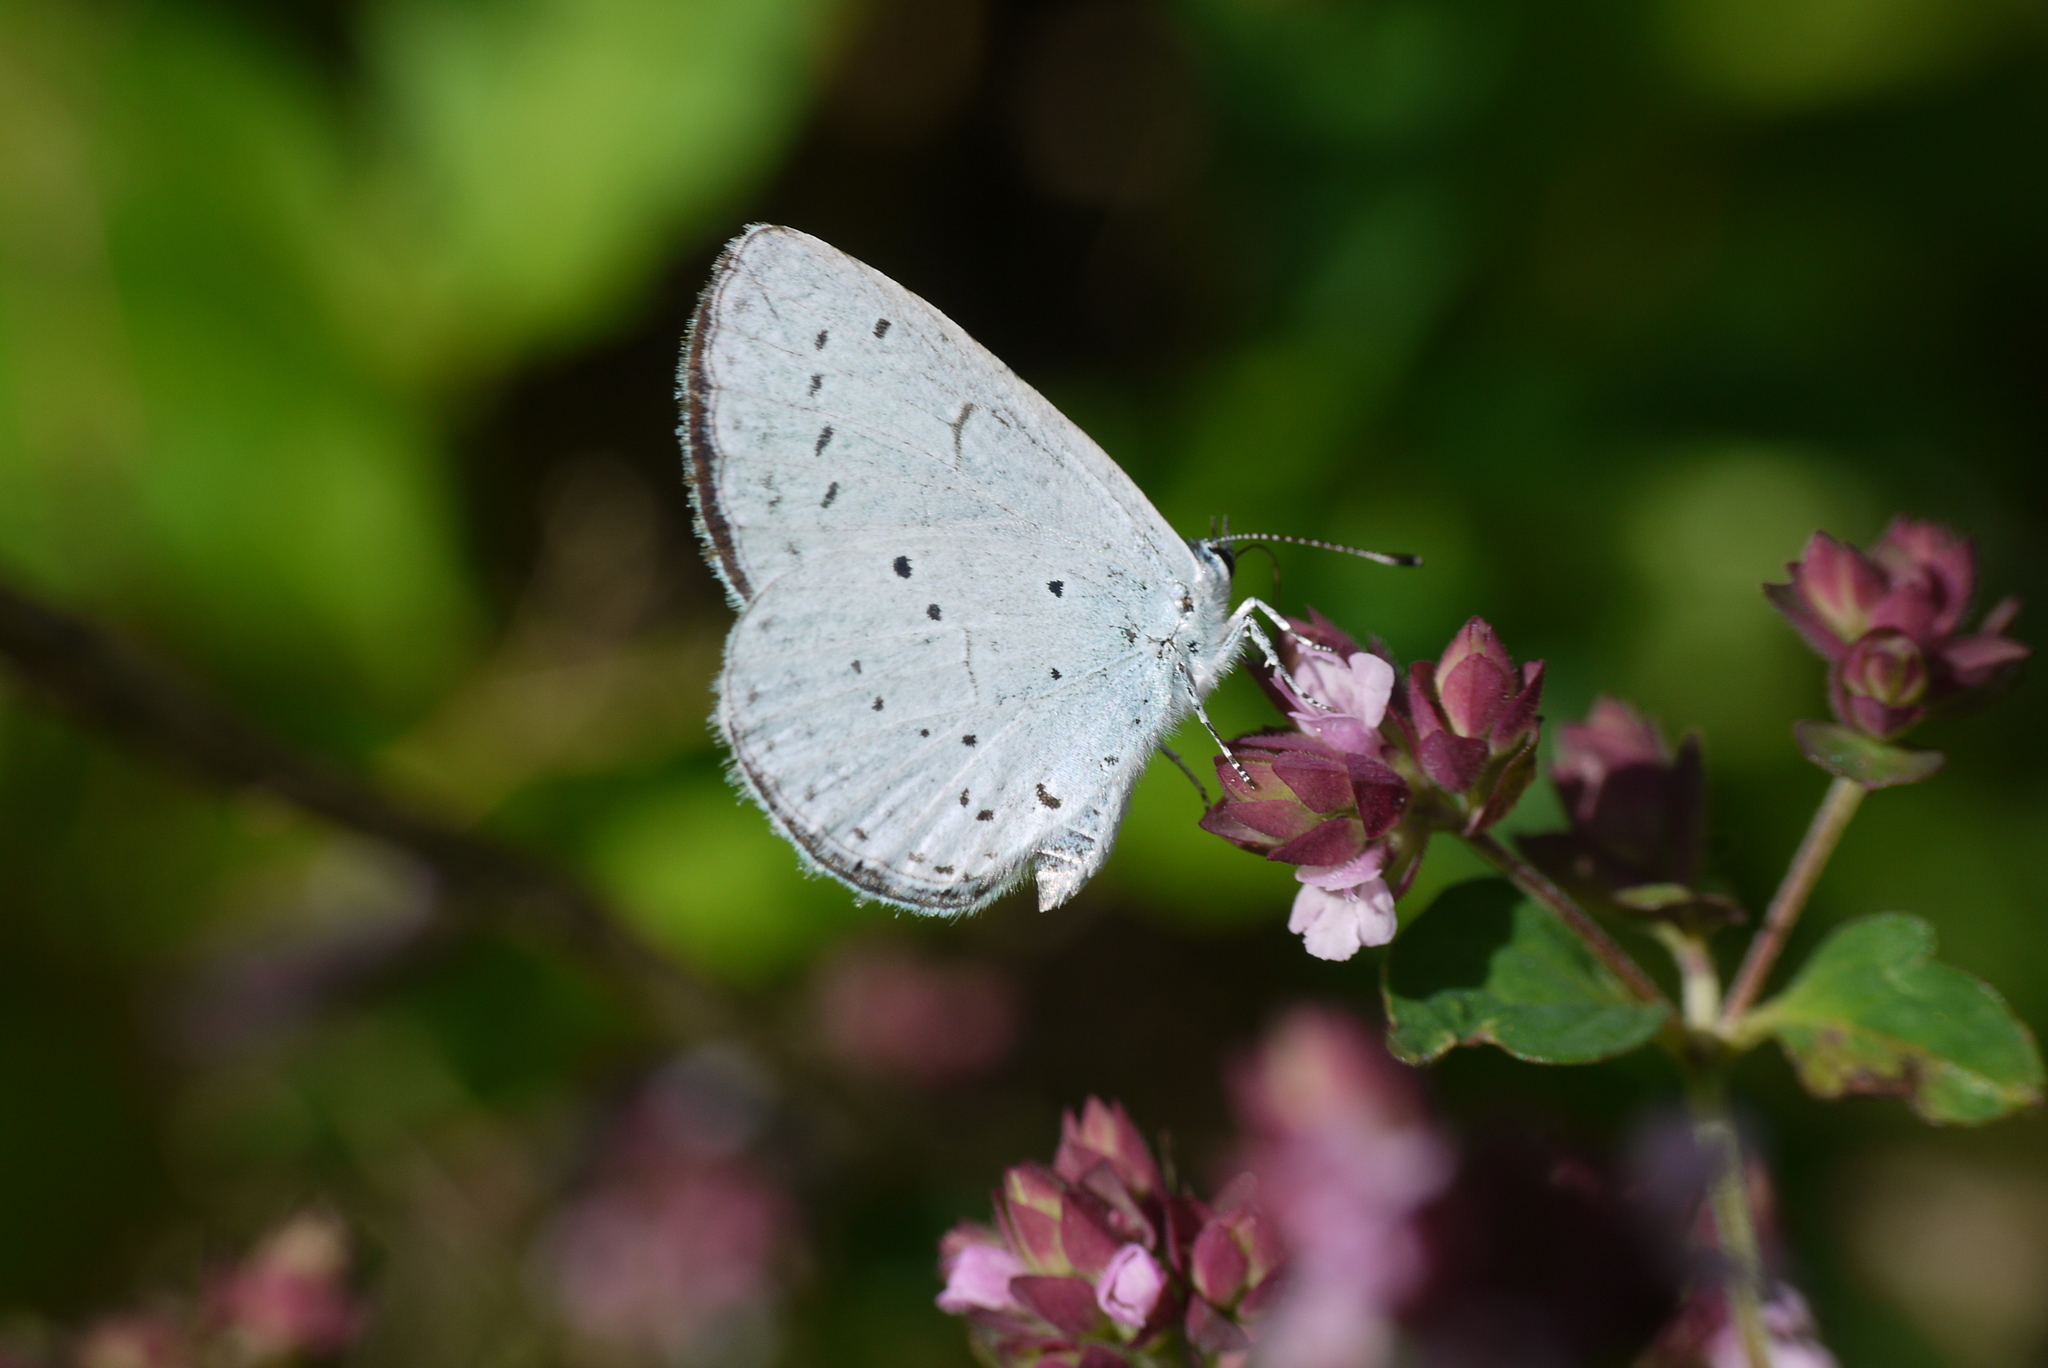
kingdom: Animalia
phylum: Arthropoda
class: Insecta
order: Lepidoptera
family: Lycaenidae
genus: Celastrina
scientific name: Celastrina argiolus
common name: Holly blue
